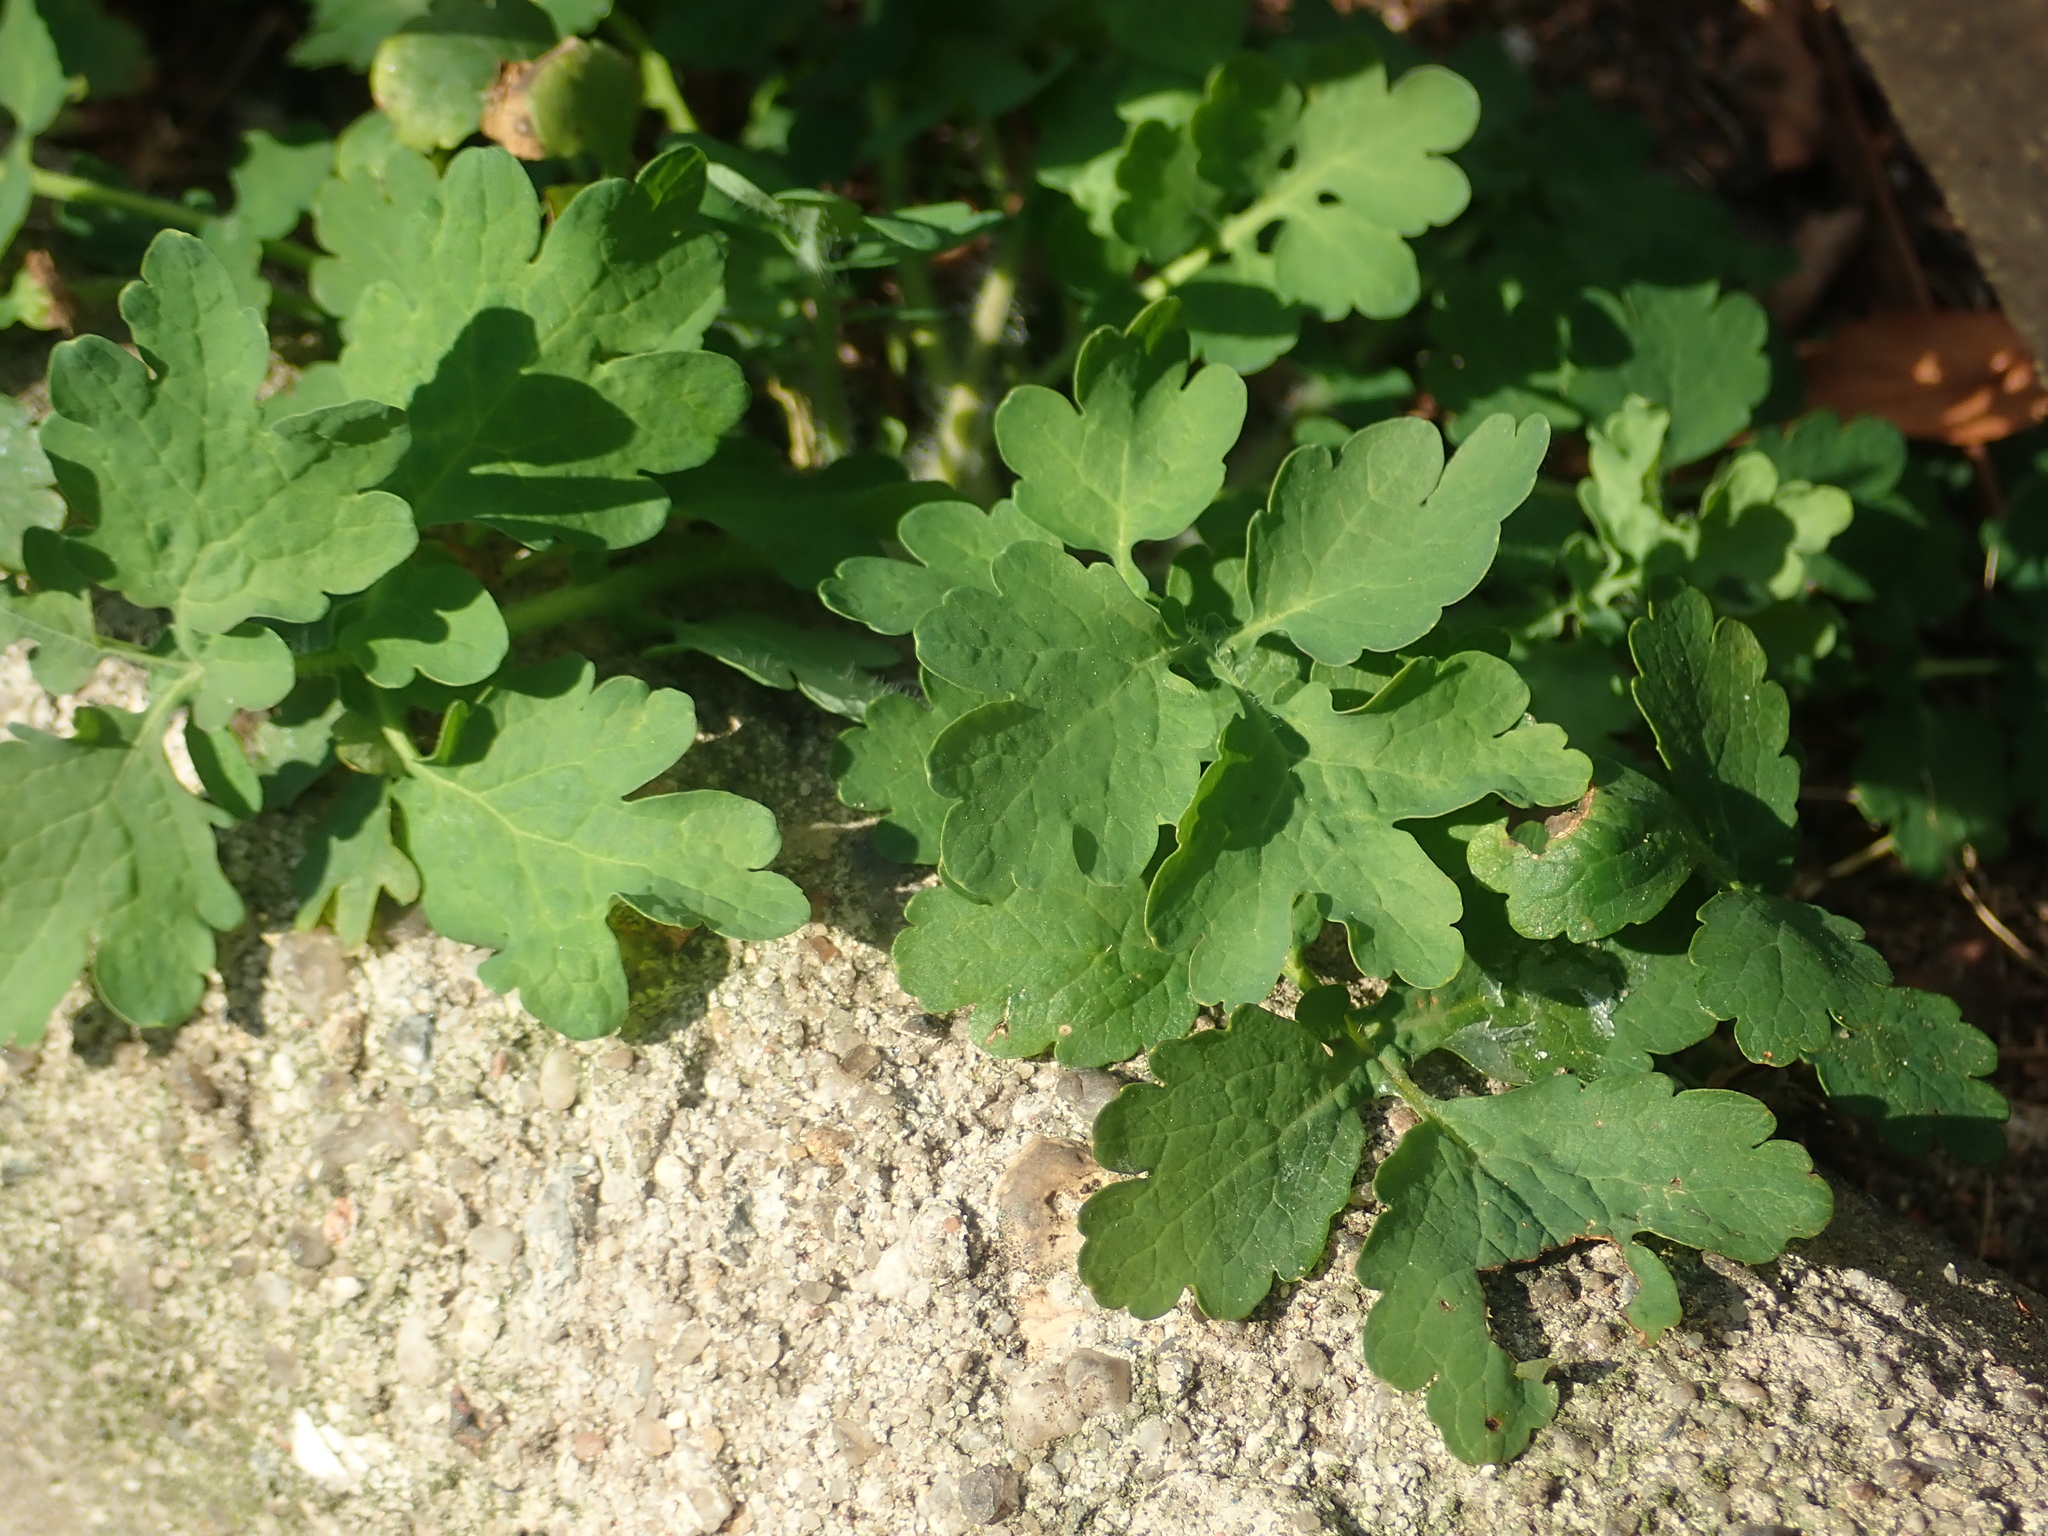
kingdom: Plantae
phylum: Tracheophyta
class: Magnoliopsida
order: Ranunculales
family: Papaveraceae
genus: Chelidonium
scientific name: Chelidonium majus
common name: Greater celandine
